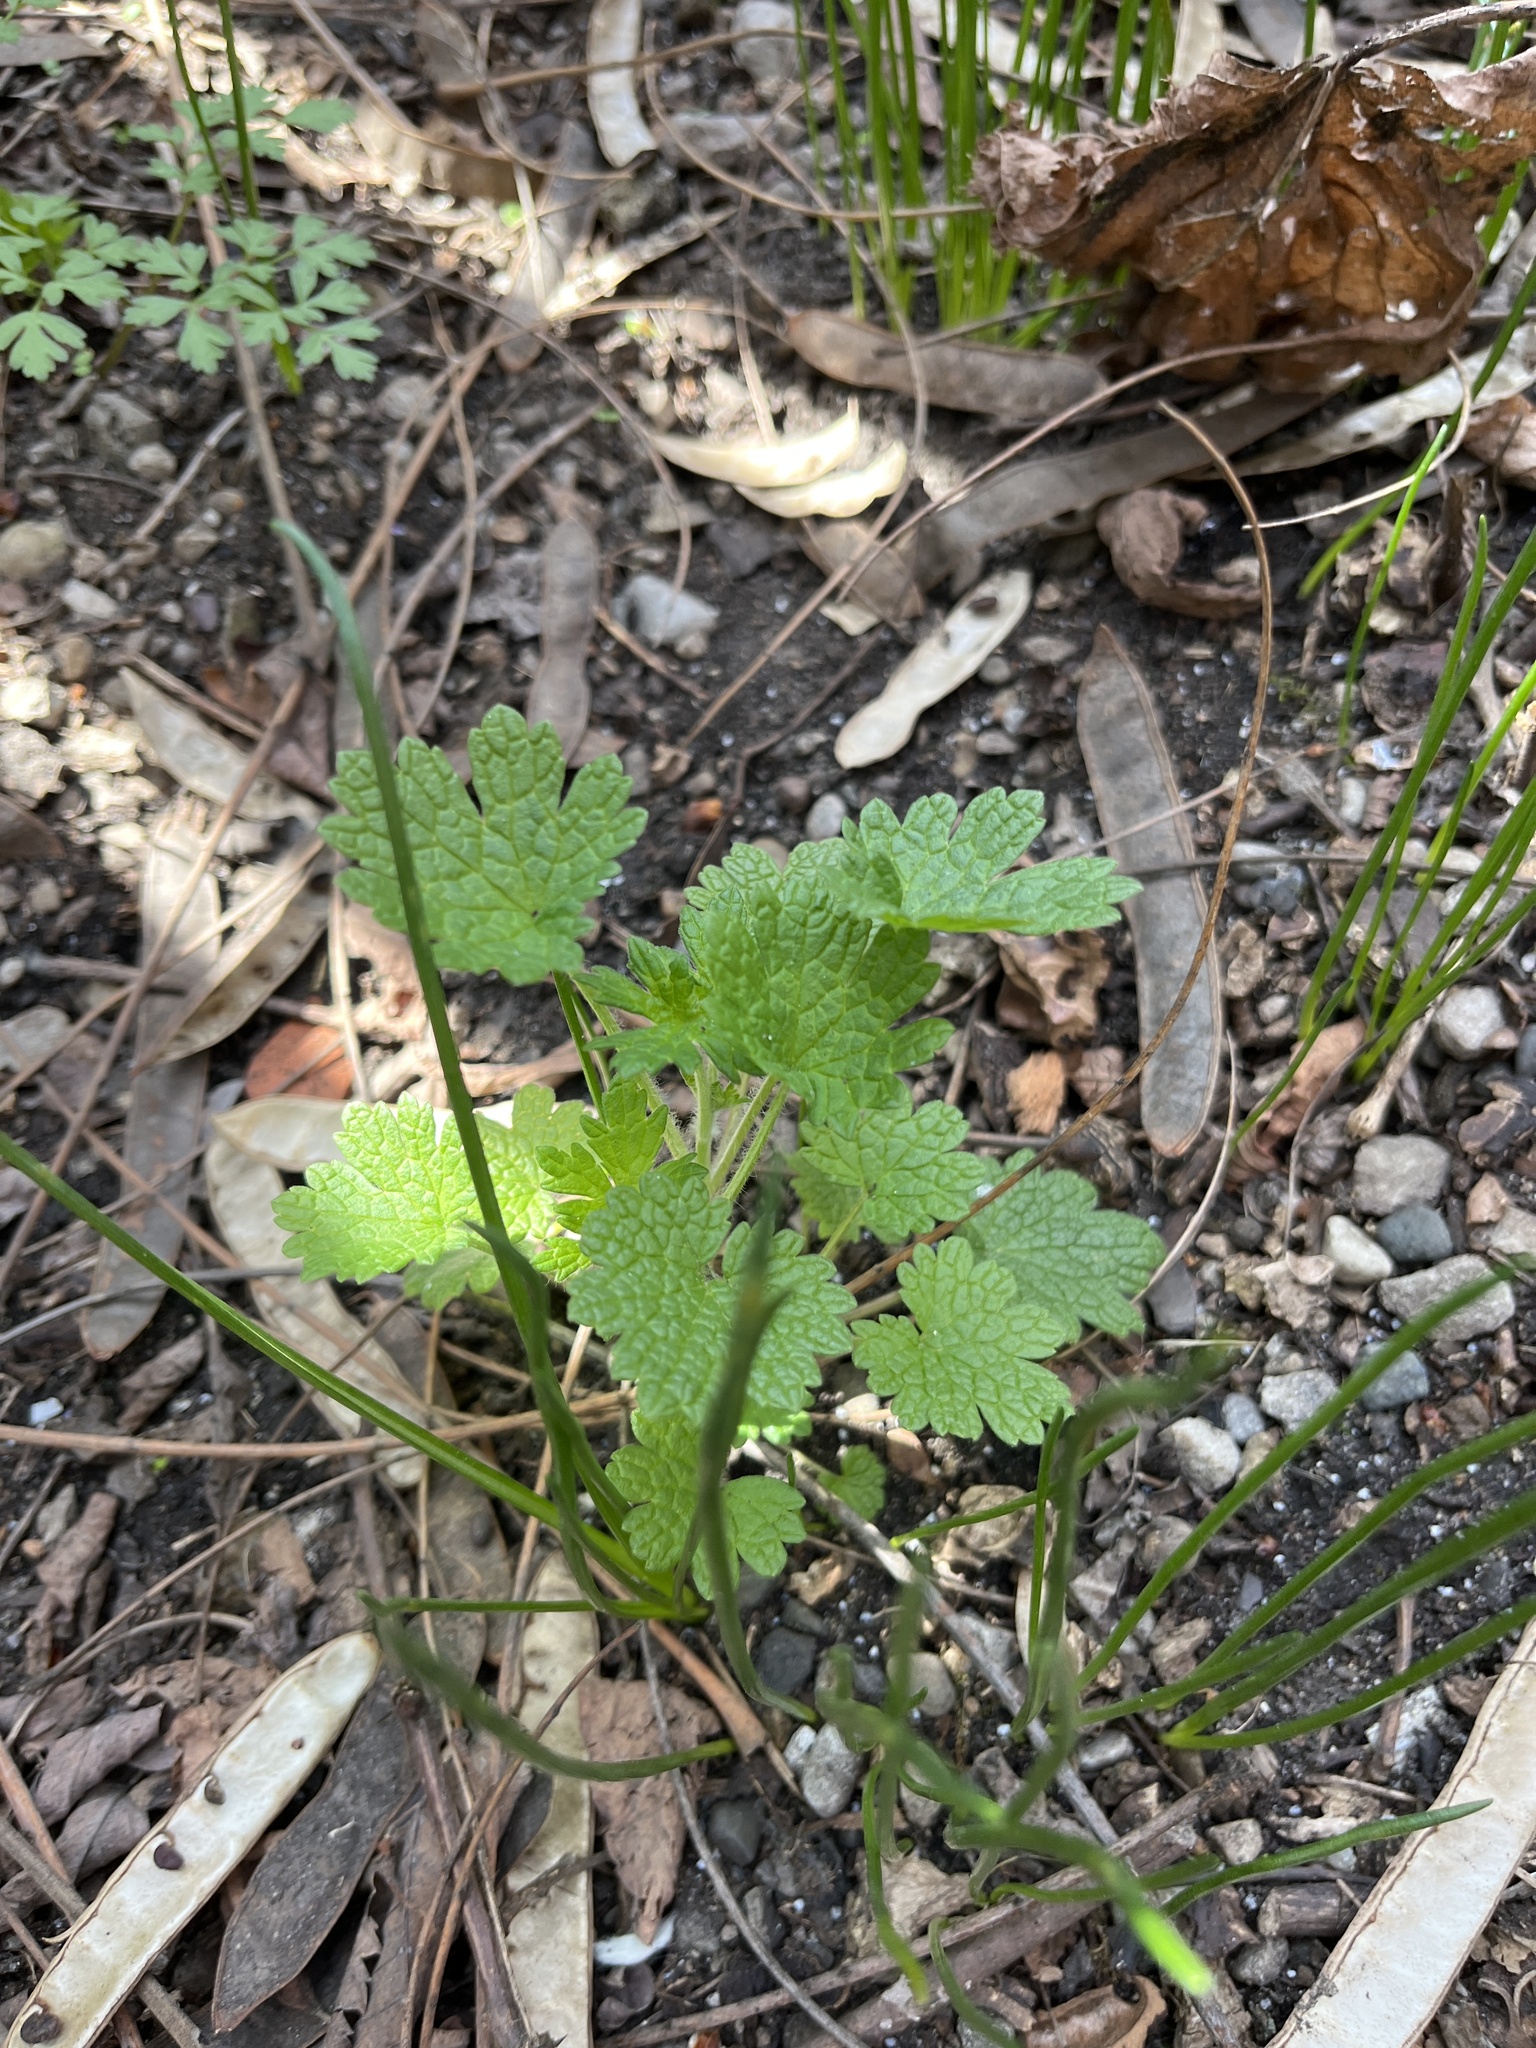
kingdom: Plantae
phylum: Tracheophyta
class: Magnoliopsida
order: Lamiales
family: Lamiaceae
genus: Leonurus
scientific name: Leonurus cardiaca
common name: Motherwort
